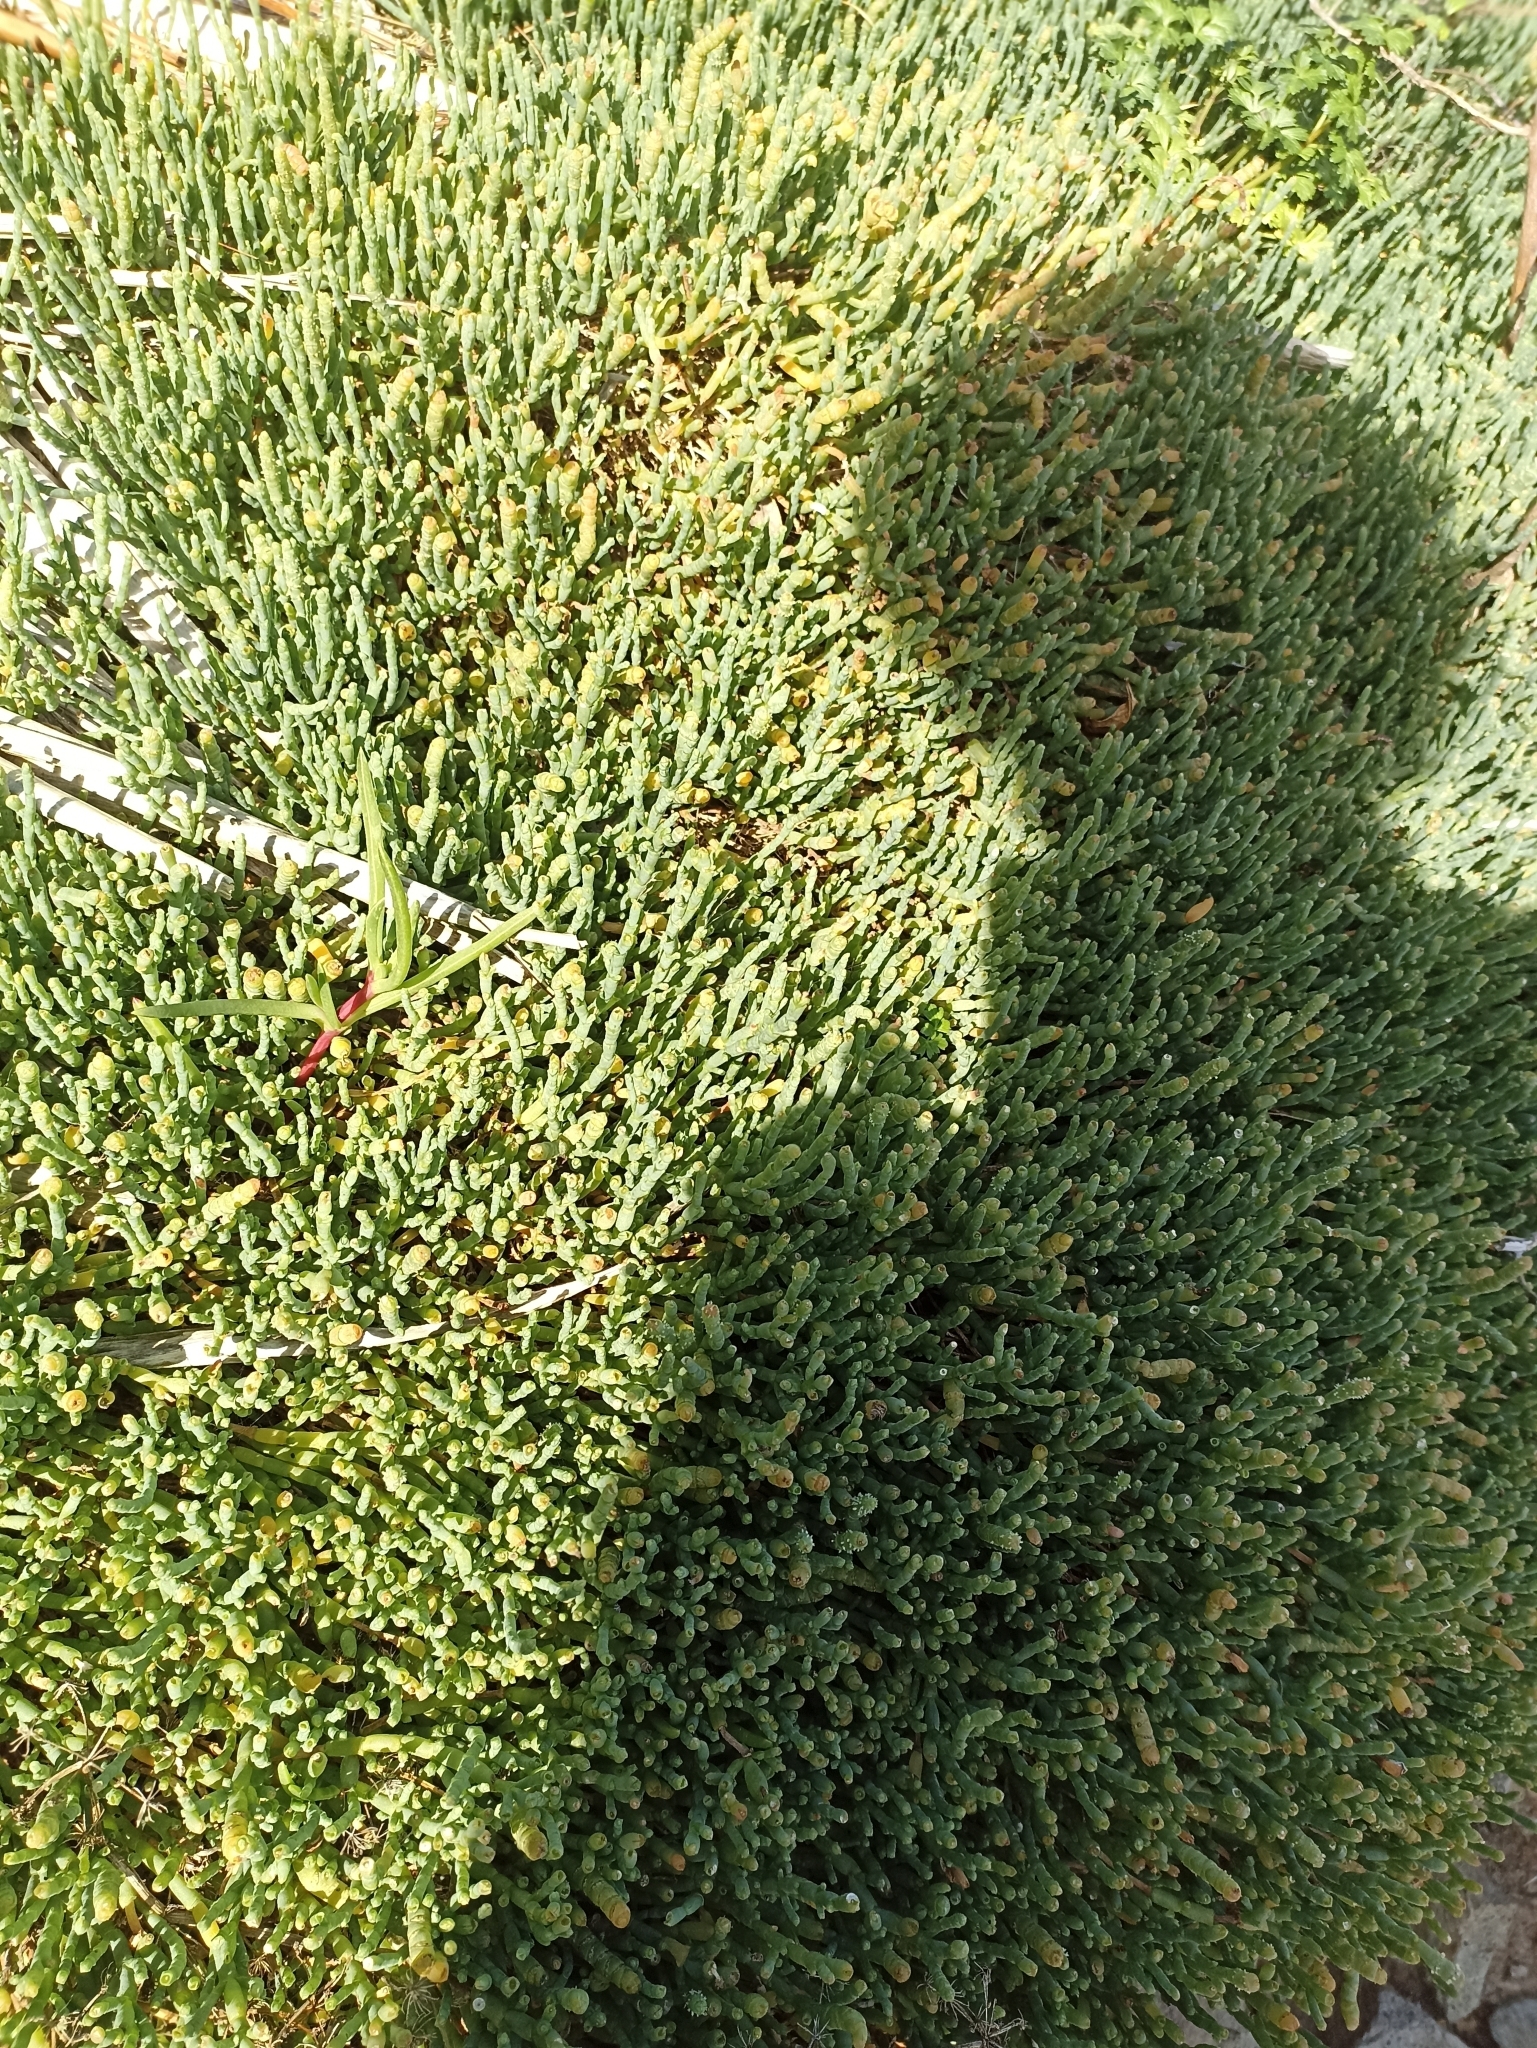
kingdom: Plantae
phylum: Tracheophyta
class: Magnoliopsida
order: Caryophyllales
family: Amaranthaceae
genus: Salicornia
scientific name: Salicornia quinqueflora
